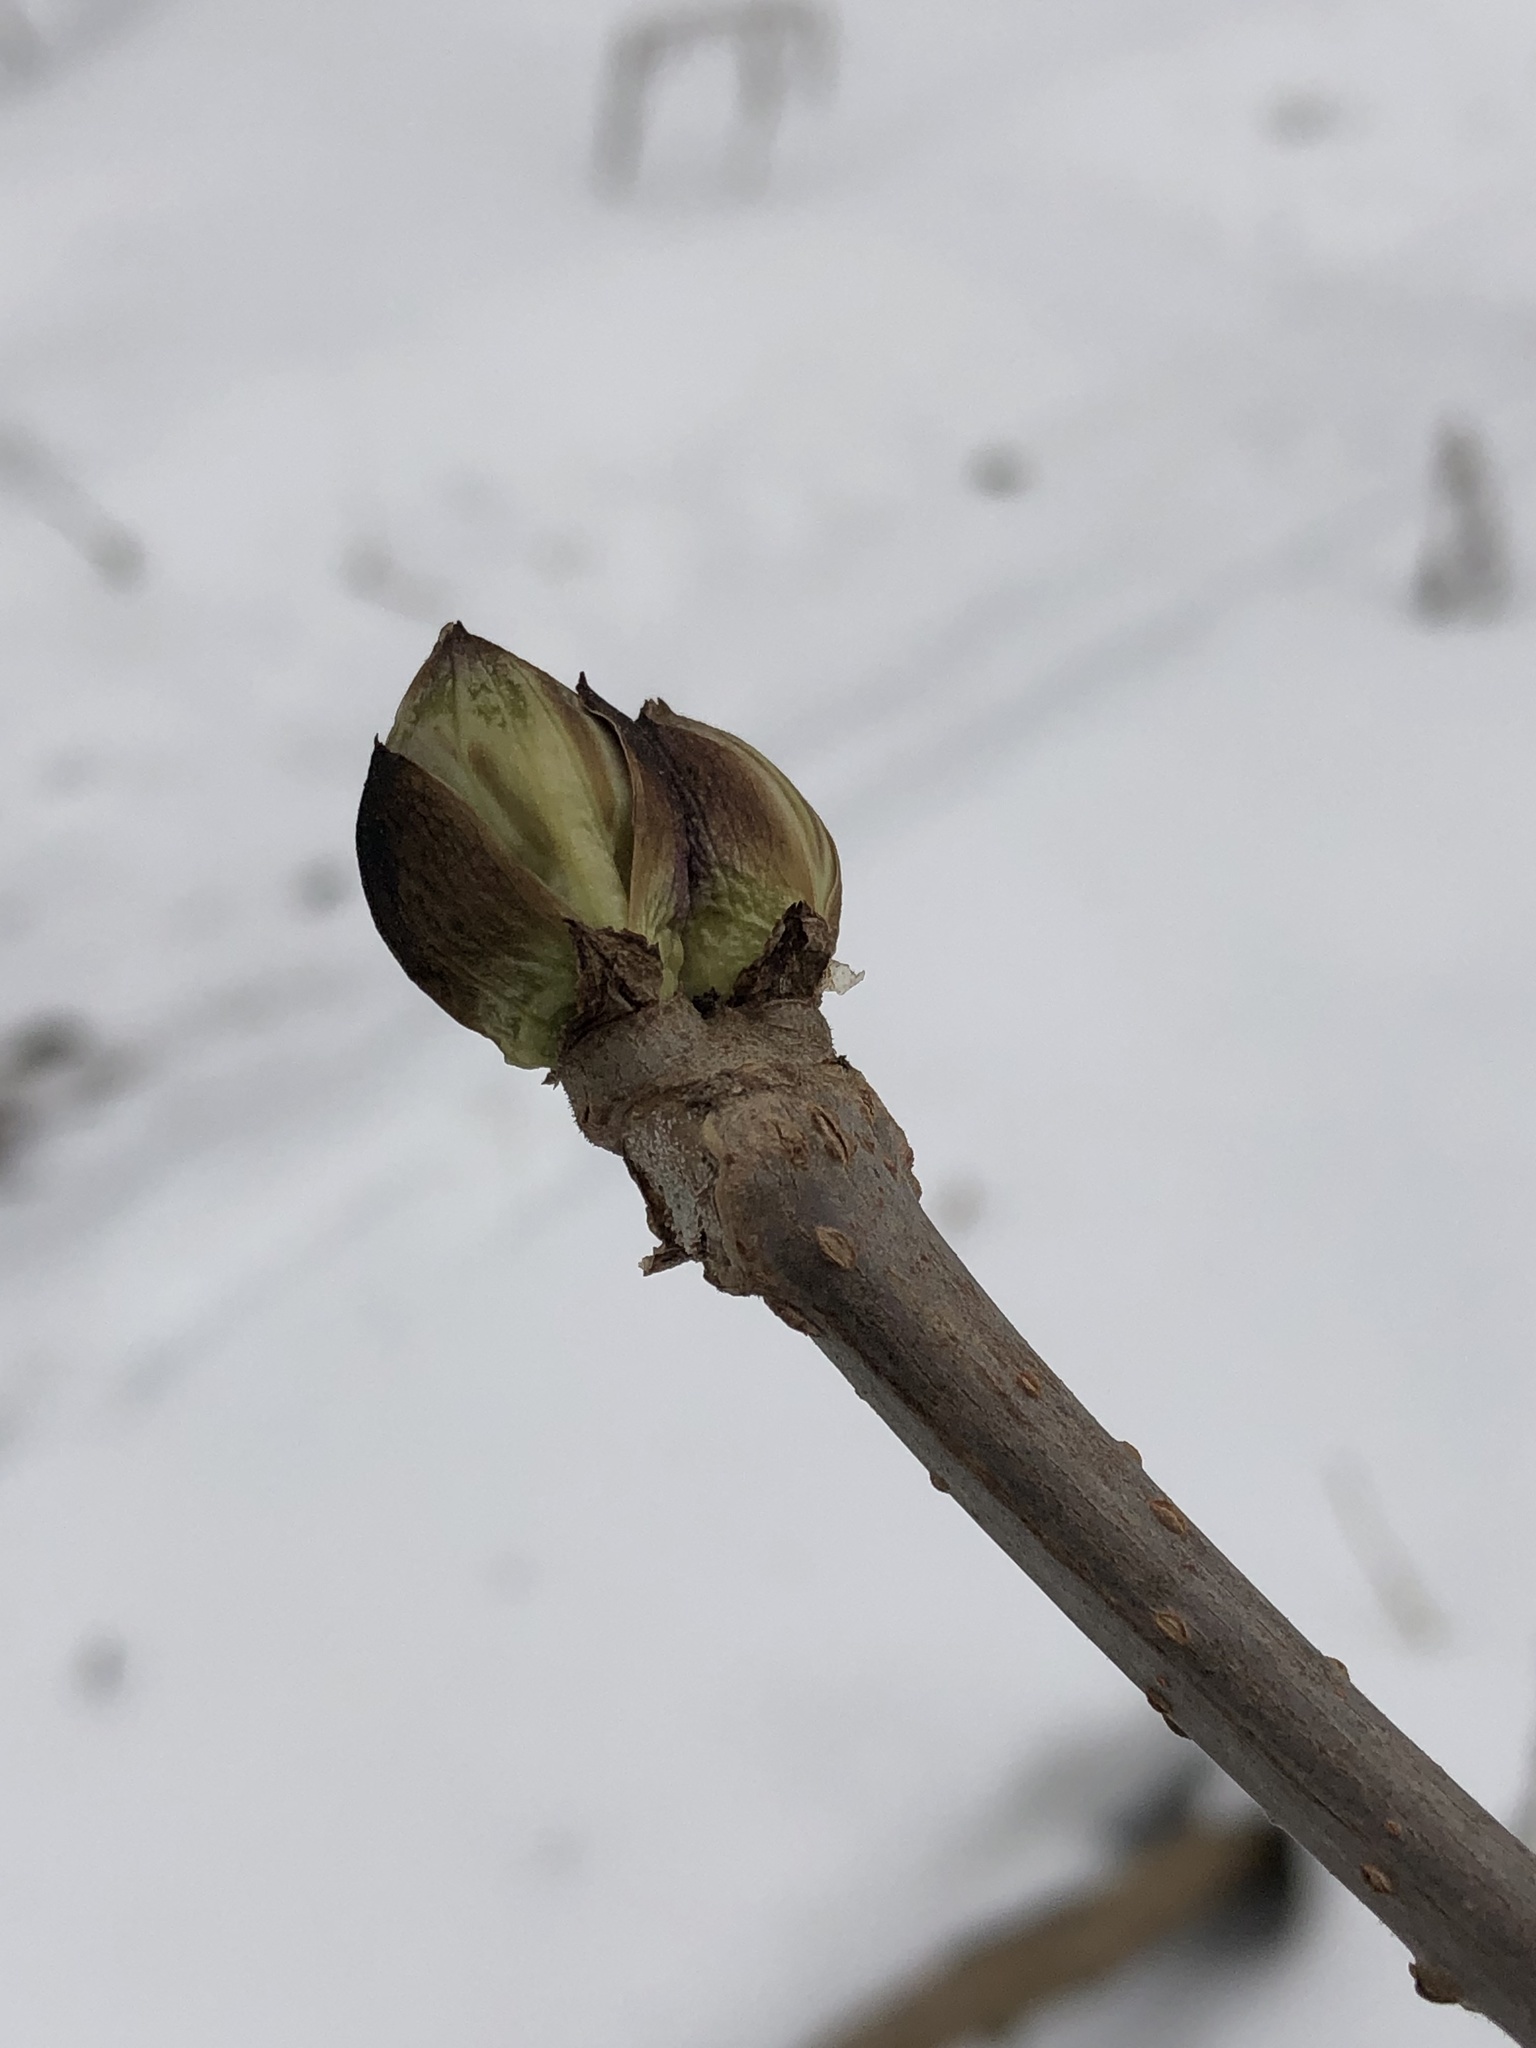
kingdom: Plantae
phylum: Tracheophyta
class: Magnoliopsida
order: Dipsacales
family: Viburnaceae
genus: Sambucus
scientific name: Sambucus racemosa
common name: Red-berried elder
